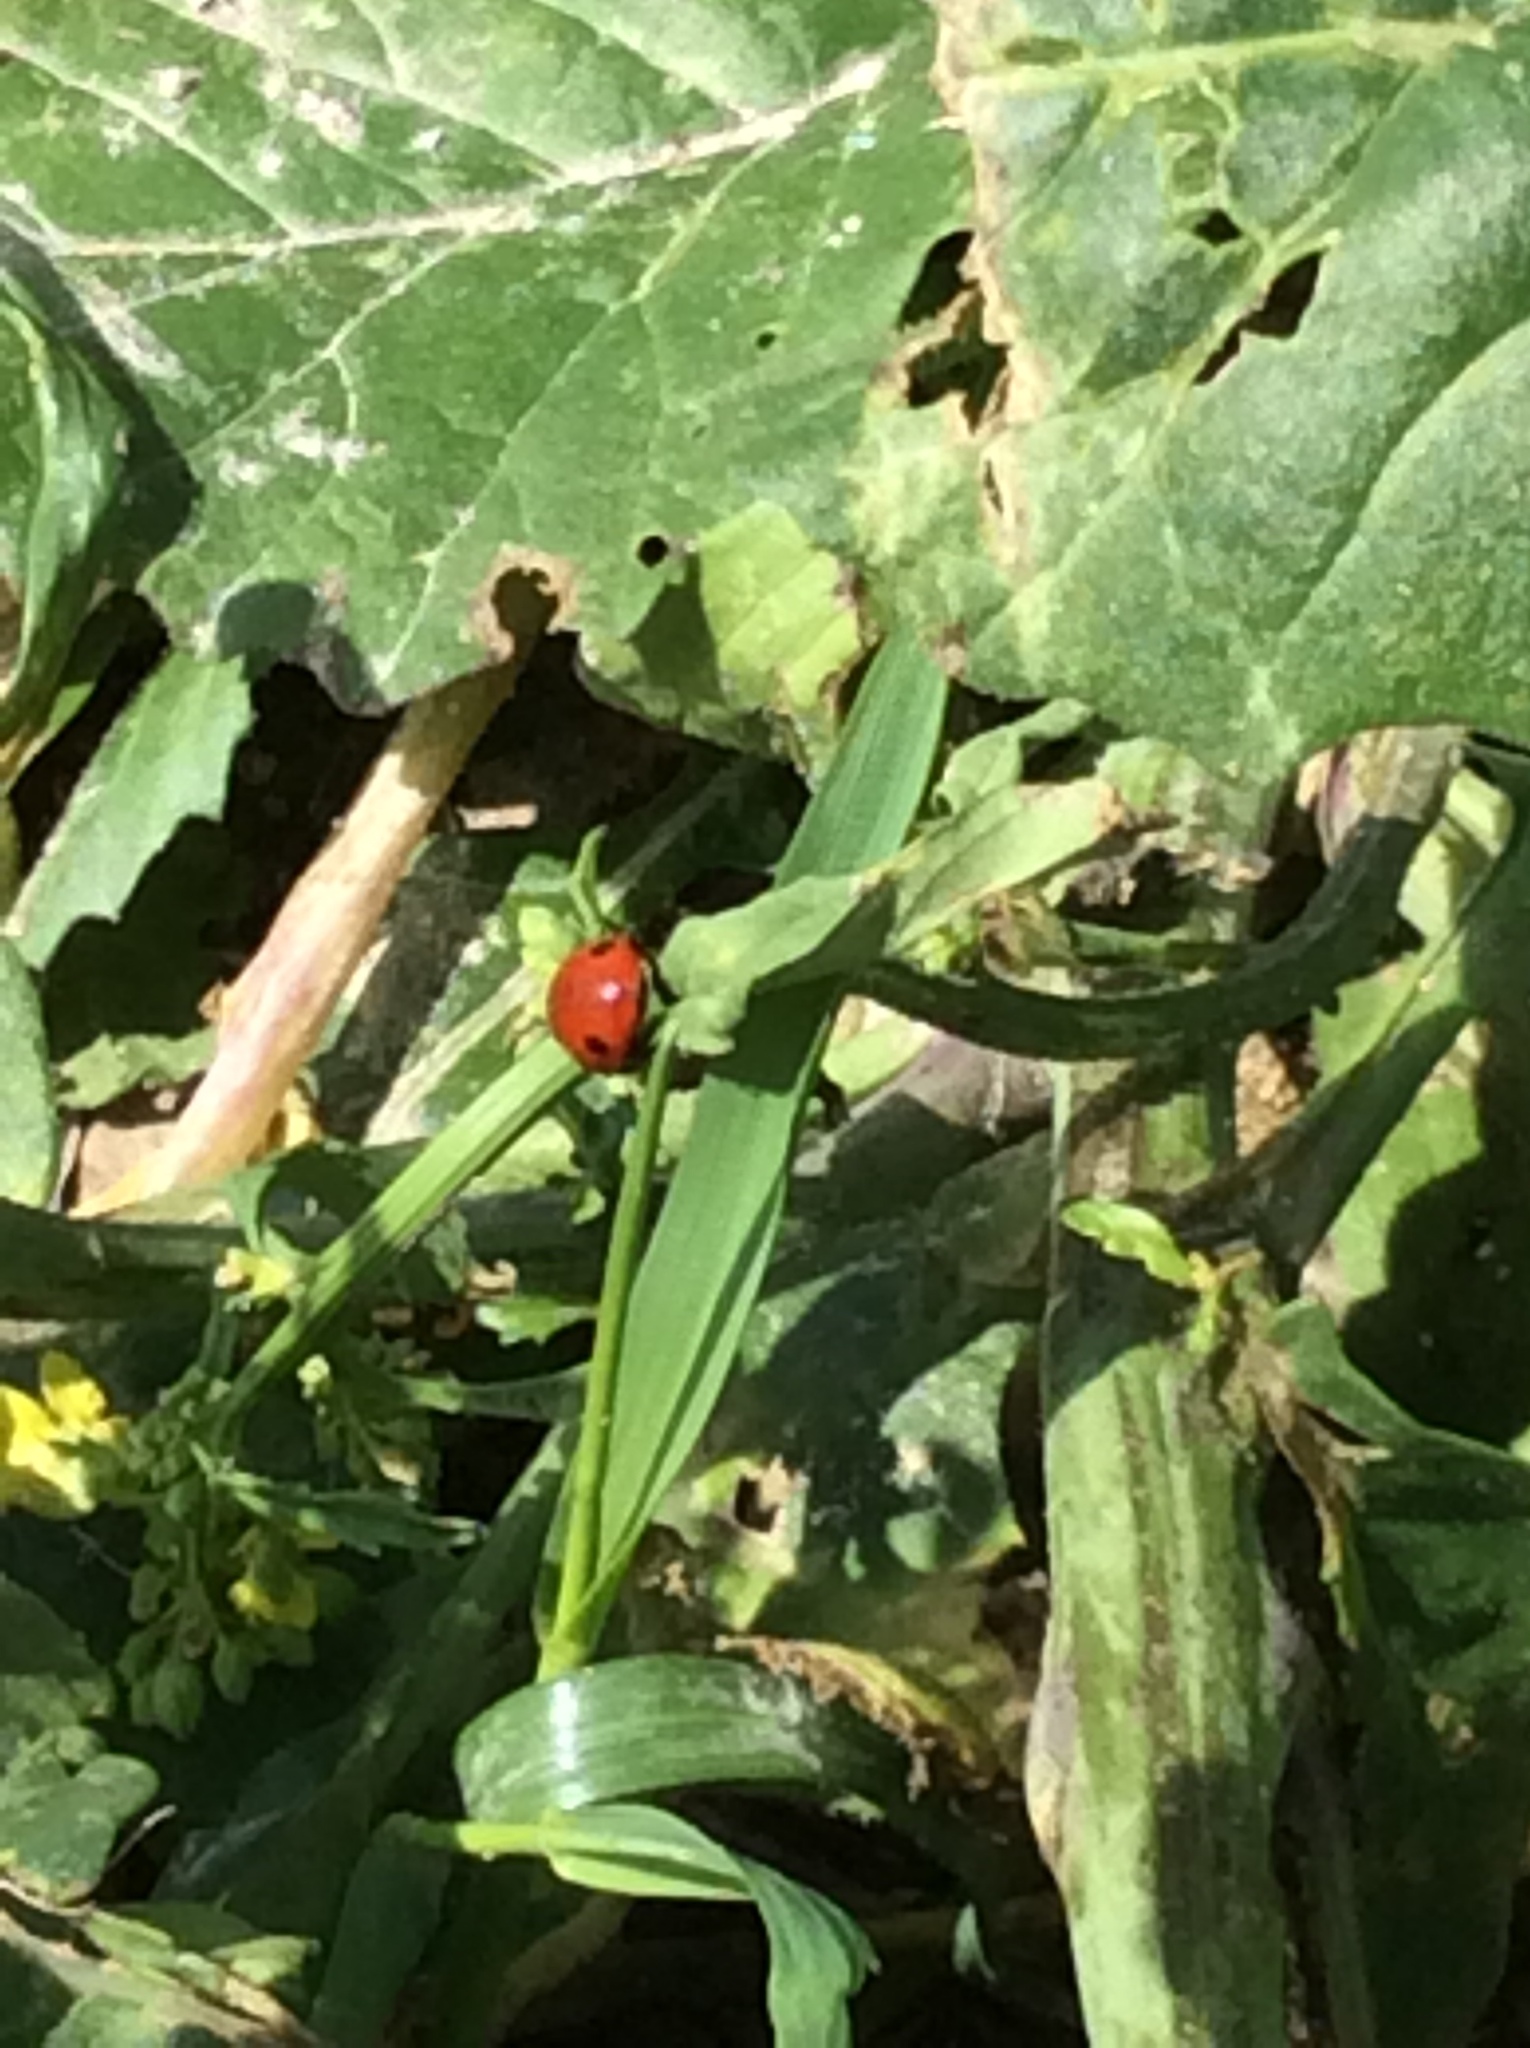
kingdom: Animalia
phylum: Arthropoda
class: Insecta
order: Coleoptera
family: Coccinellidae
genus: Coccinella
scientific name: Coccinella septempunctata
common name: Sevenspotted lady beetle
